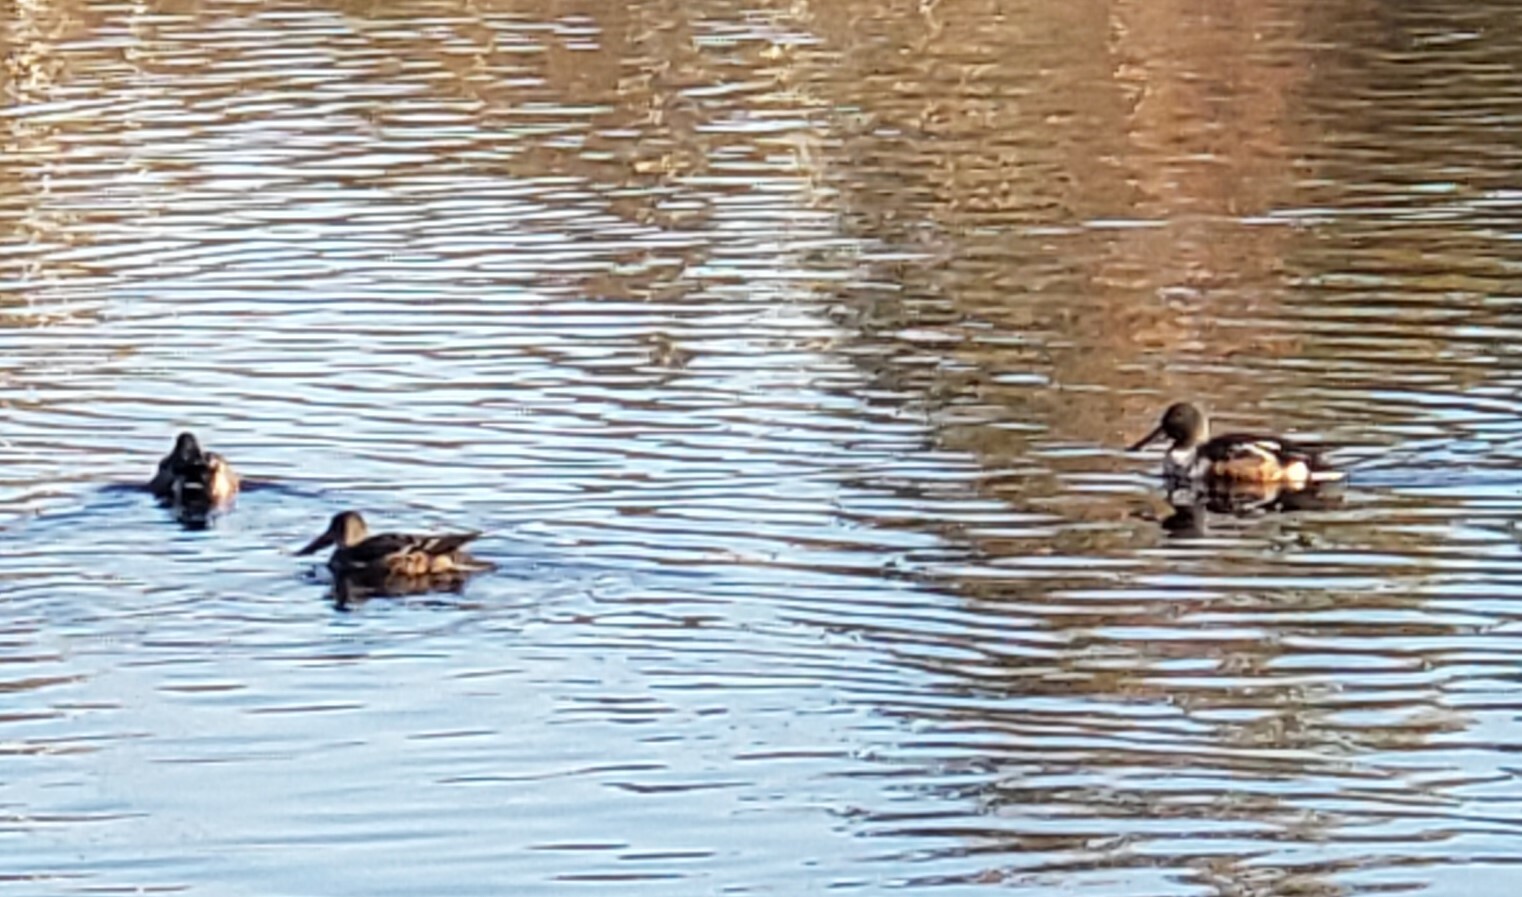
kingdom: Animalia
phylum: Chordata
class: Aves
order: Anseriformes
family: Anatidae
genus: Spatula
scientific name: Spatula clypeata
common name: Northern shoveler
